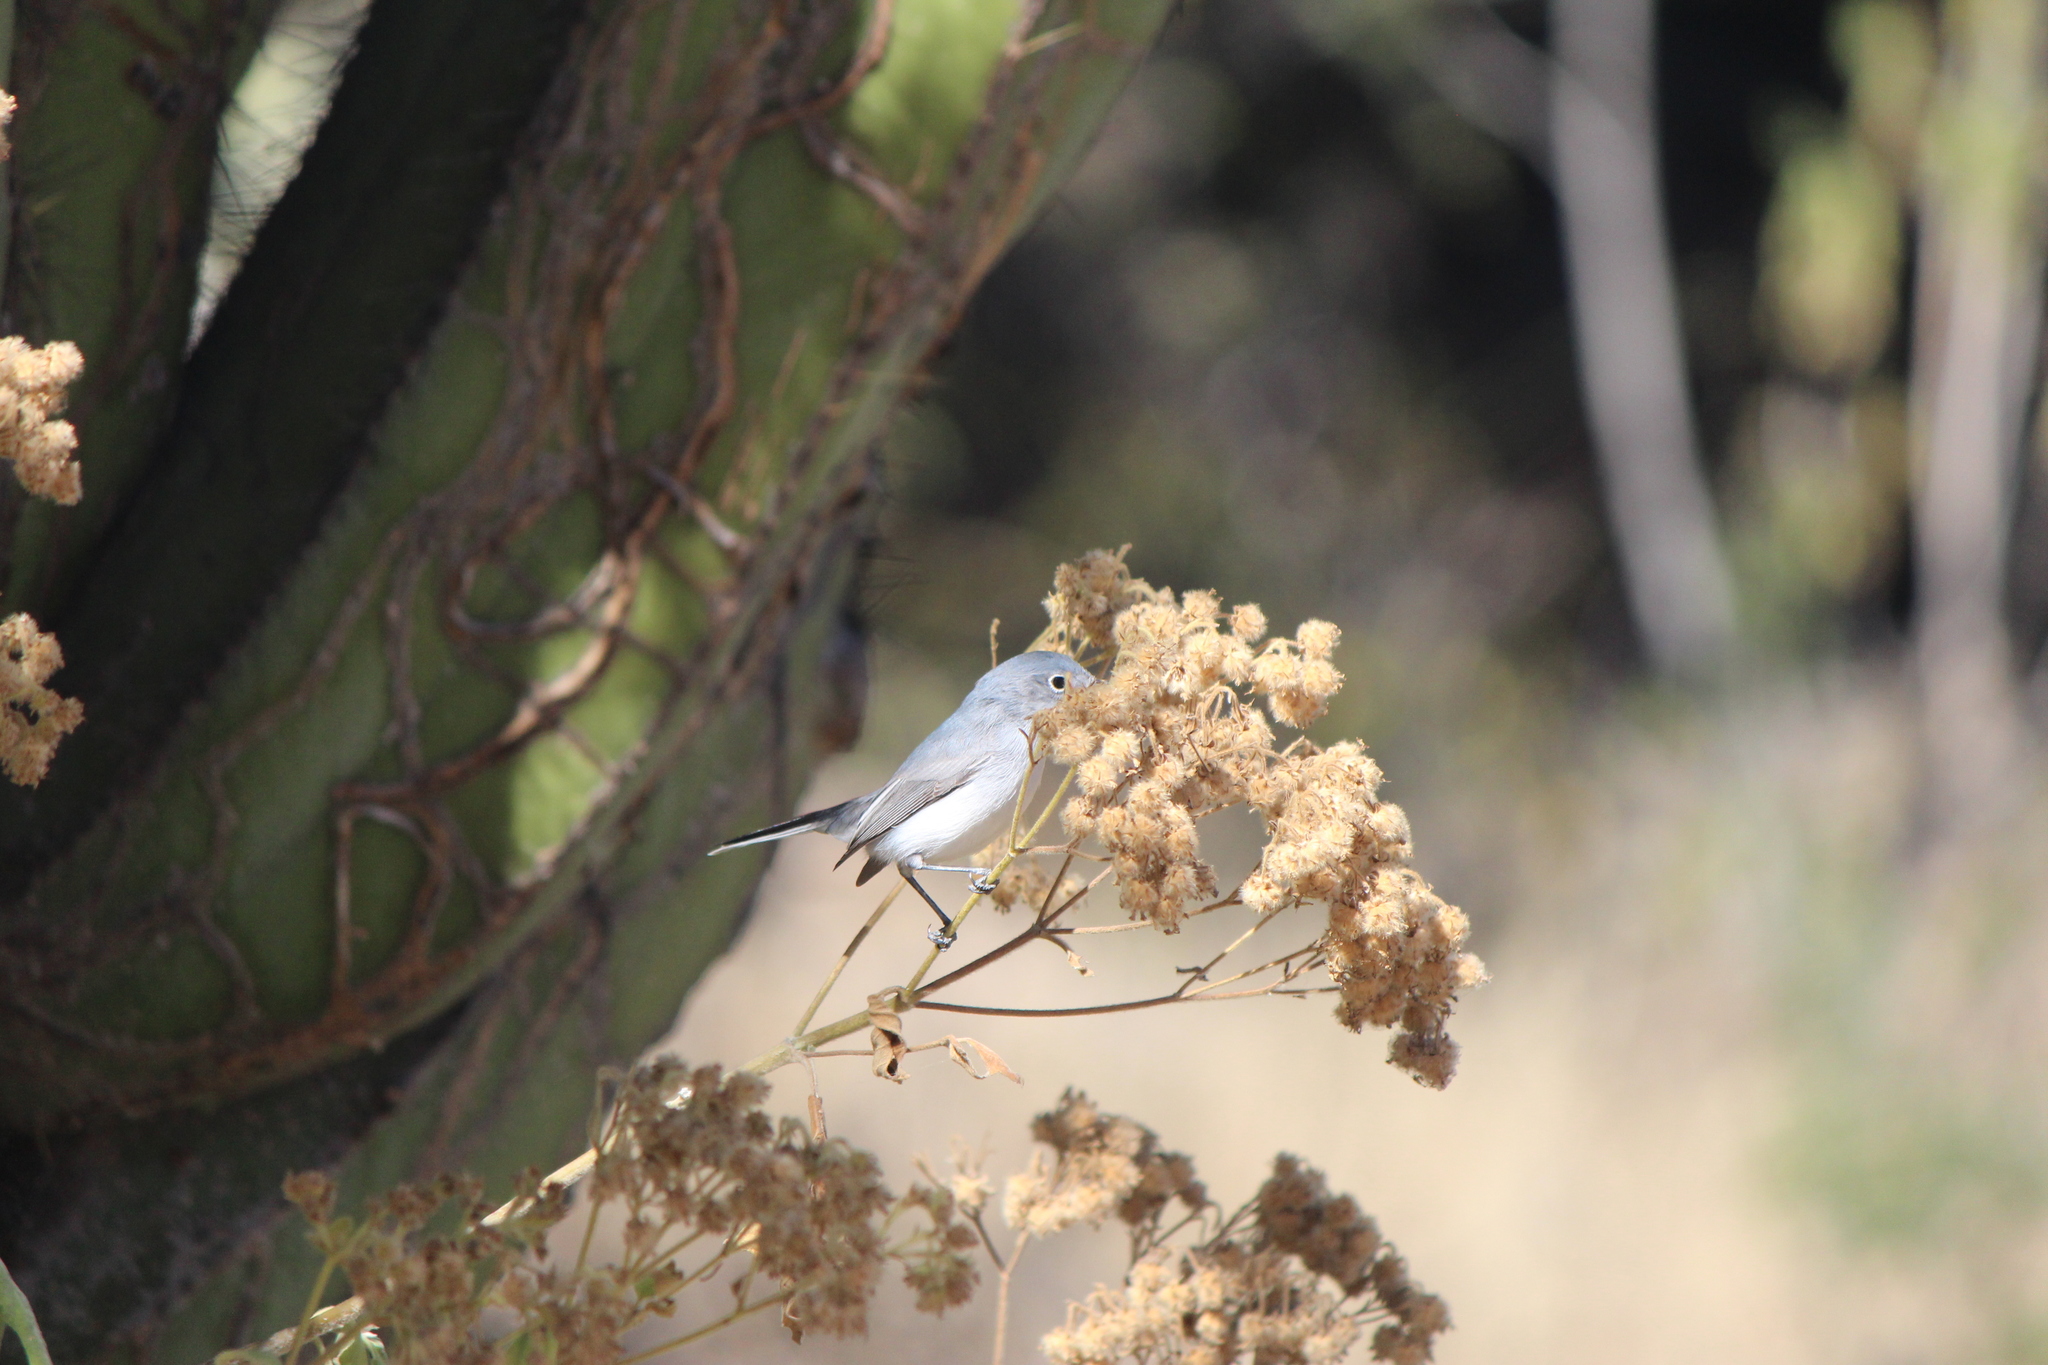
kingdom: Animalia
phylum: Chordata
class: Aves
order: Passeriformes
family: Polioptilidae
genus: Polioptila
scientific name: Polioptila caerulea
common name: Blue-gray gnatcatcher
